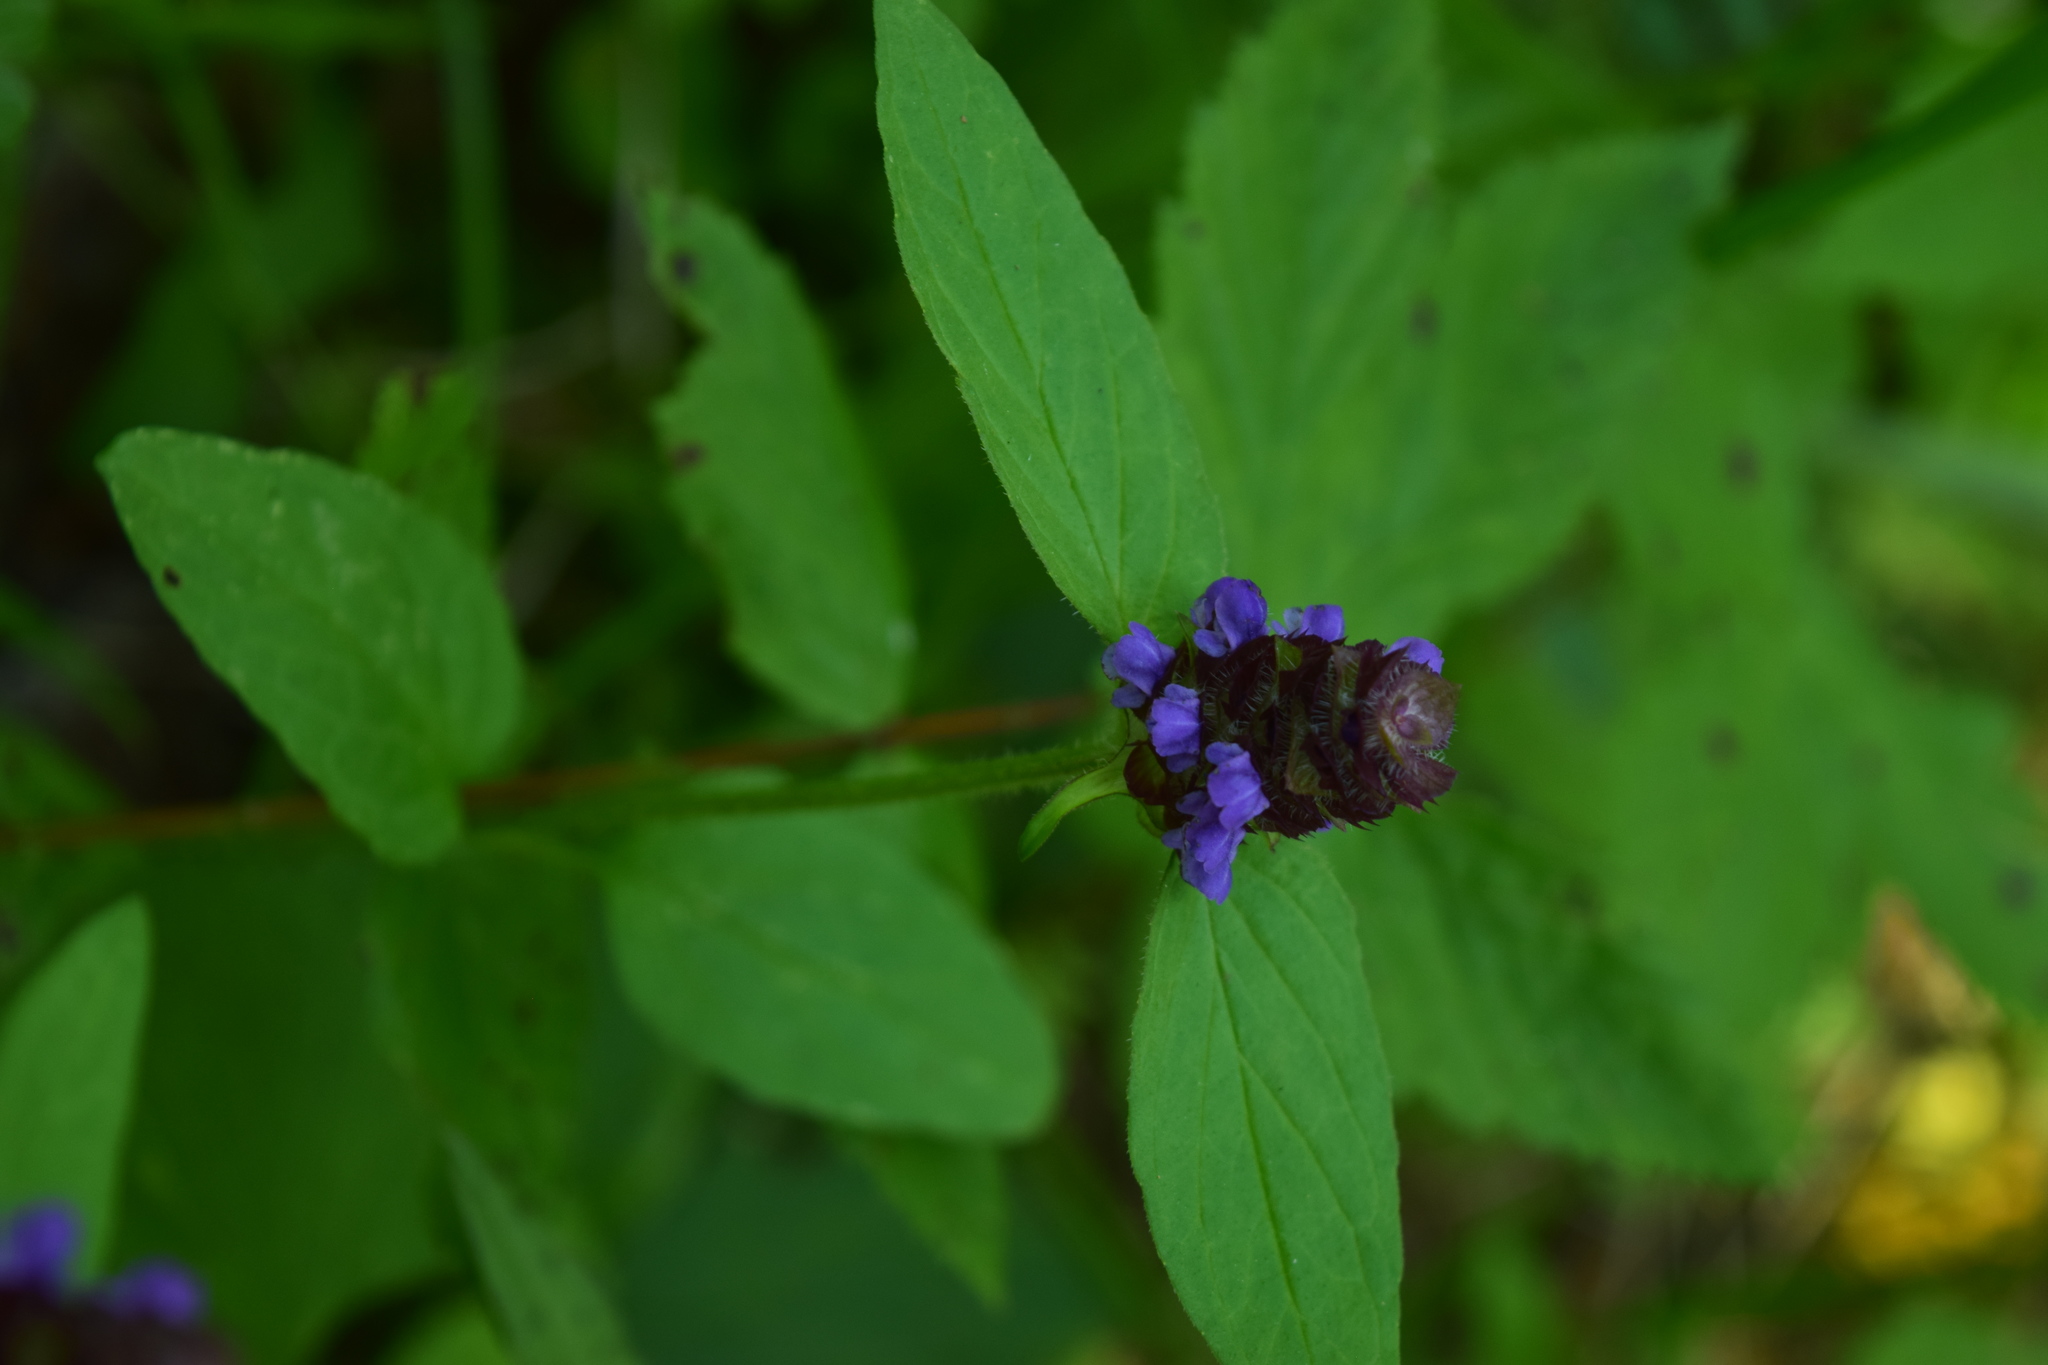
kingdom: Plantae
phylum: Tracheophyta
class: Magnoliopsida
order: Lamiales
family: Lamiaceae
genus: Prunella
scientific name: Prunella vulgaris
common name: Heal-all
